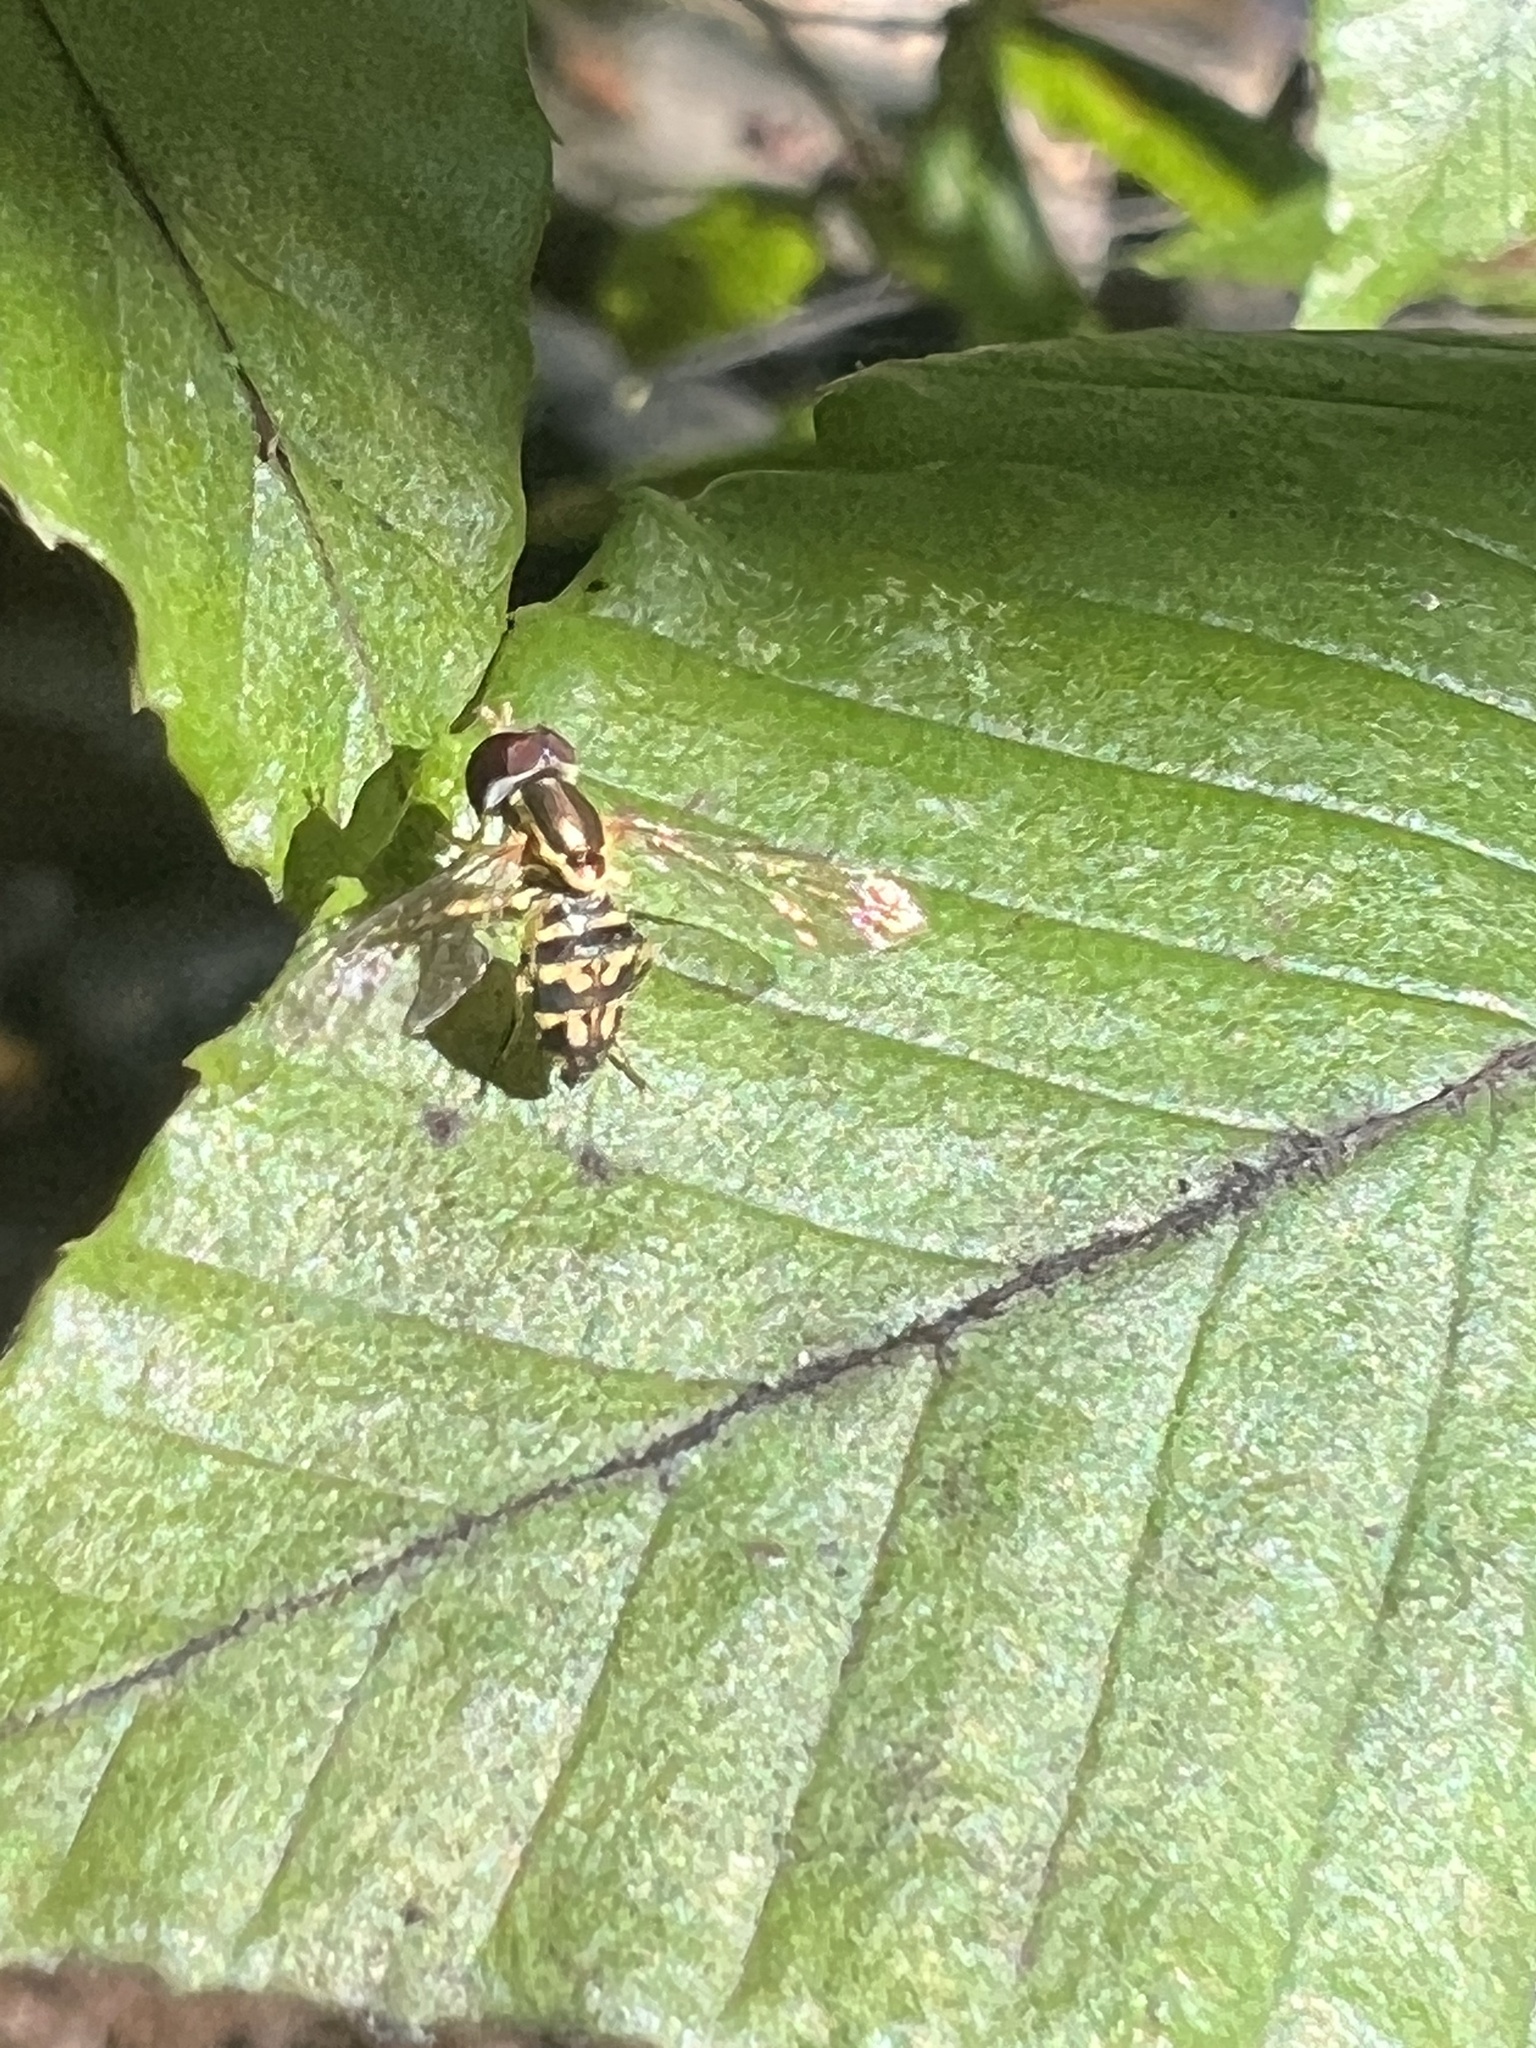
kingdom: Animalia
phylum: Arthropoda
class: Insecta
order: Diptera
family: Syrphidae
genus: Toxomerus
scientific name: Toxomerus geminatus
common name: Eastern calligrapher
